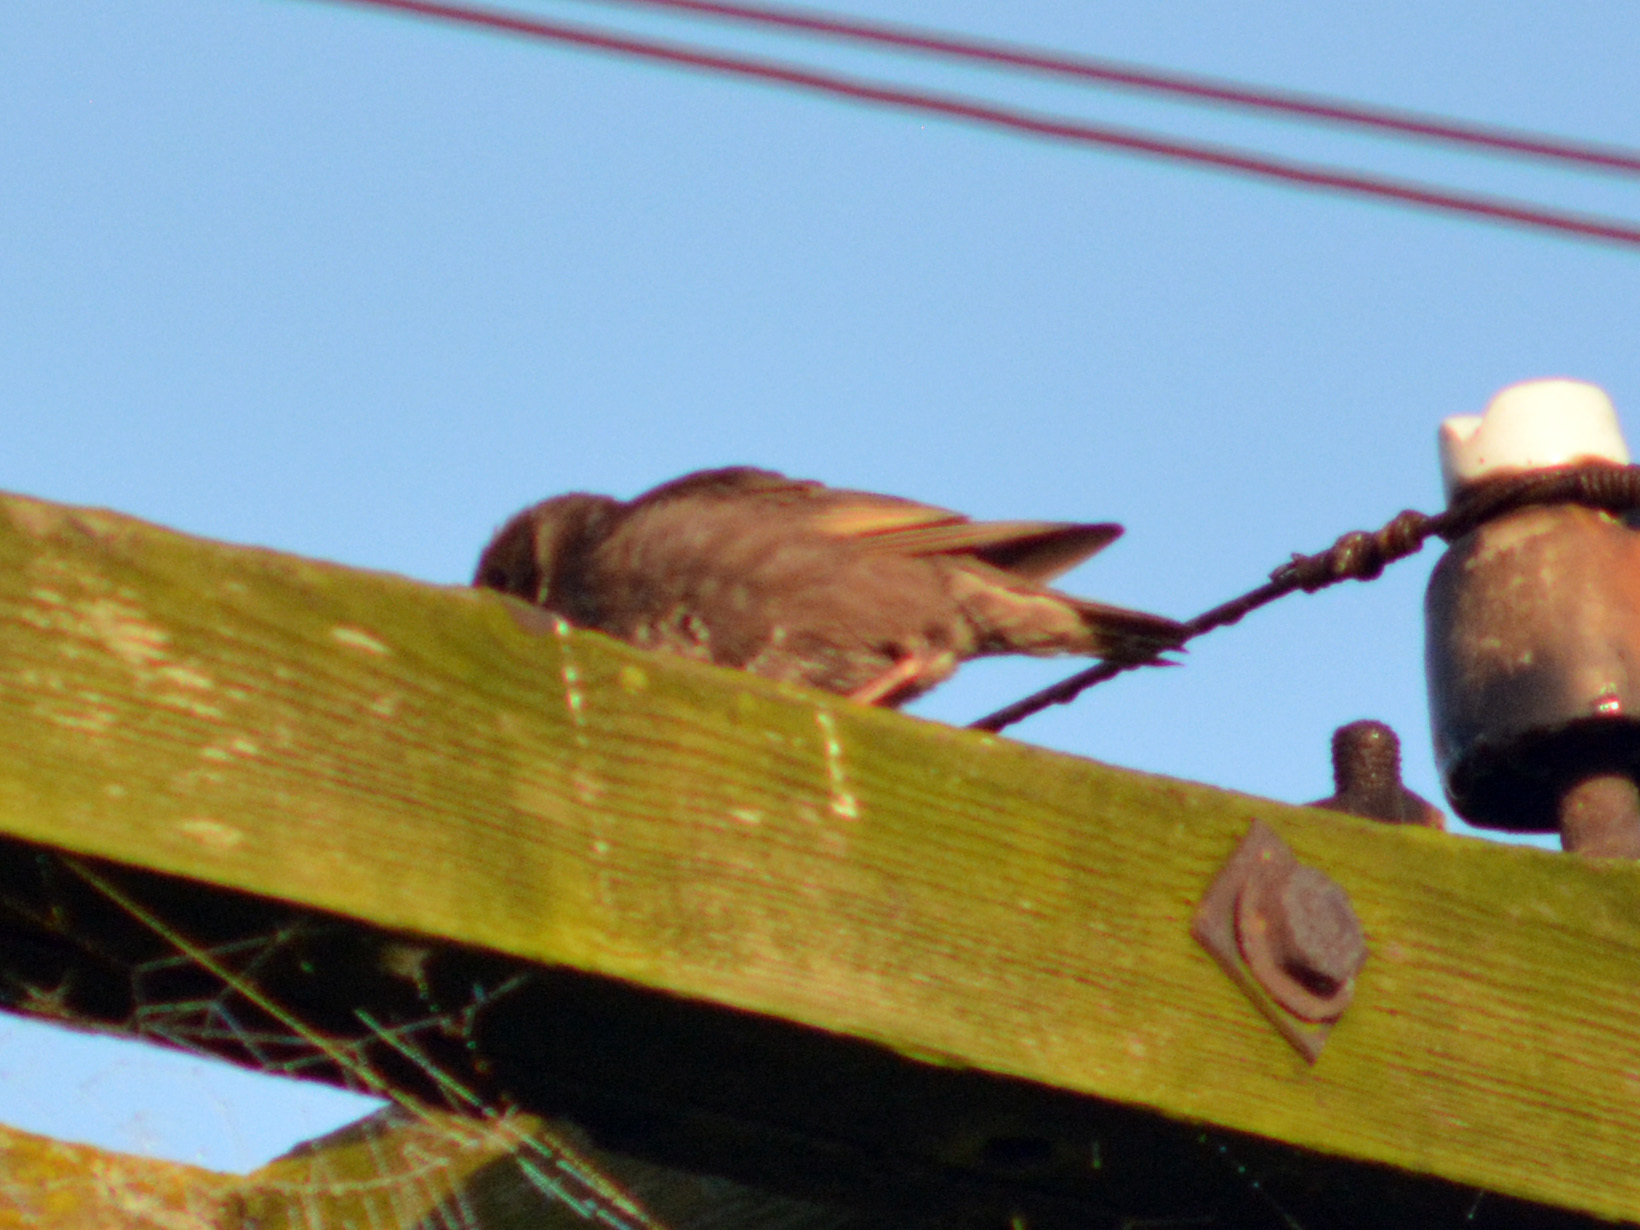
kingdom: Animalia
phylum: Chordata
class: Aves
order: Passeriformes
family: Sturnidae
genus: Sturnus
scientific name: Sturnus vulgaris
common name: Common starling
